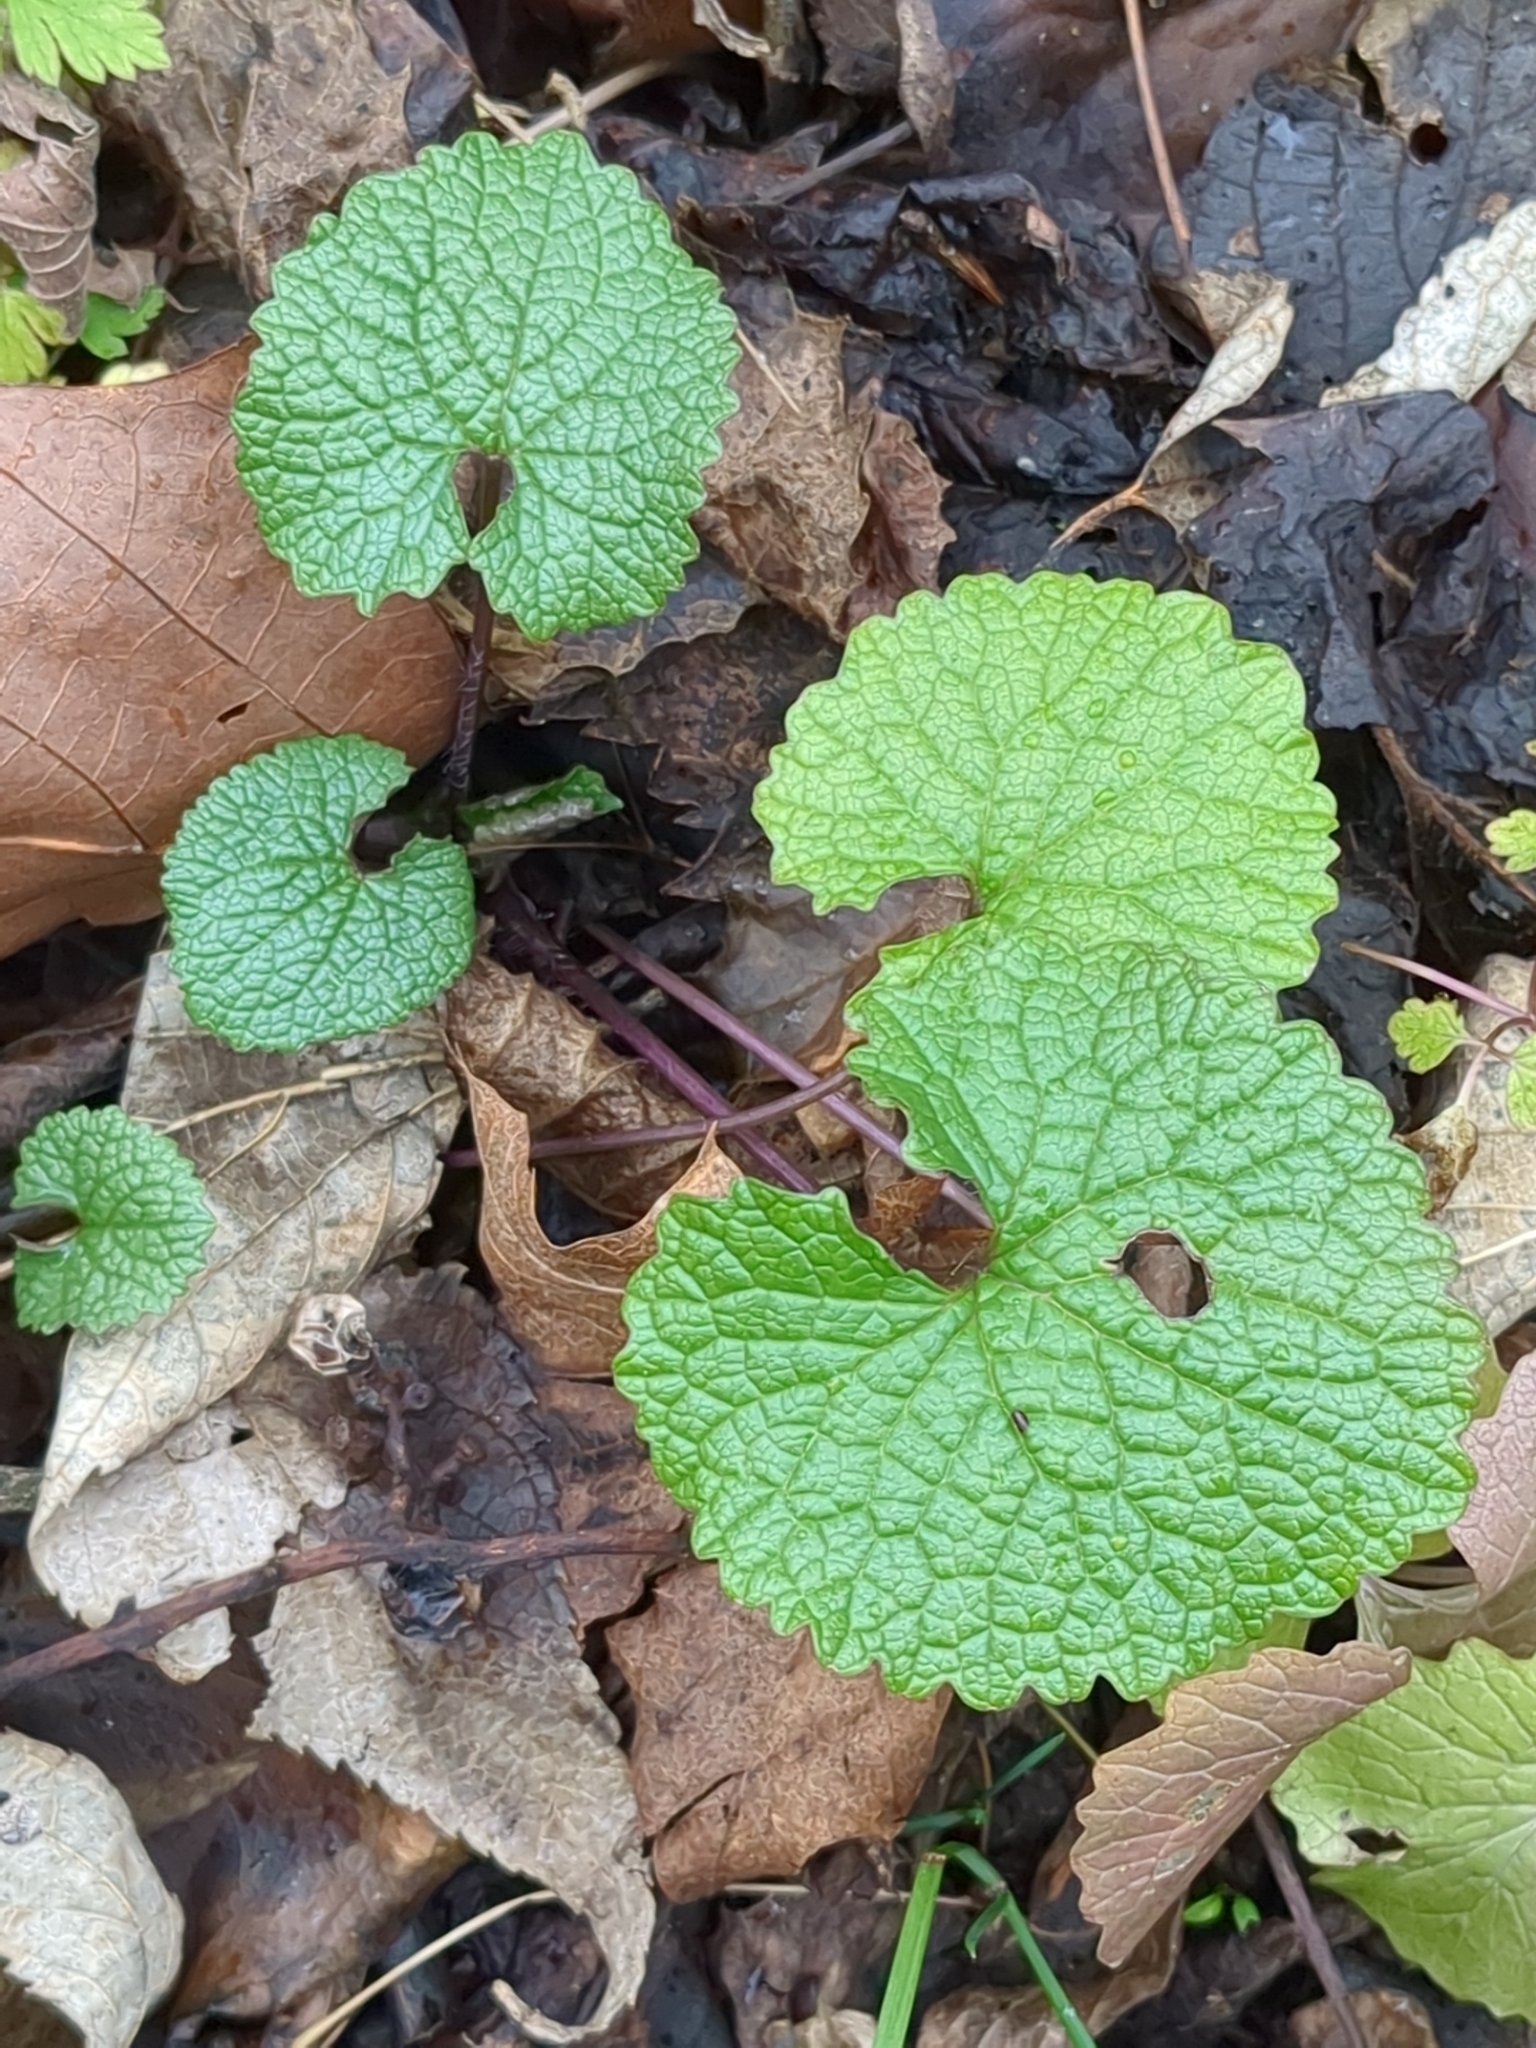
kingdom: Plantae
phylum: Tracheophyta
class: Magnoliopsida
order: Brassicales
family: Brassicaceae
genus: Alliaria
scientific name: Alliaria petiolata
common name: Garlic mustard
